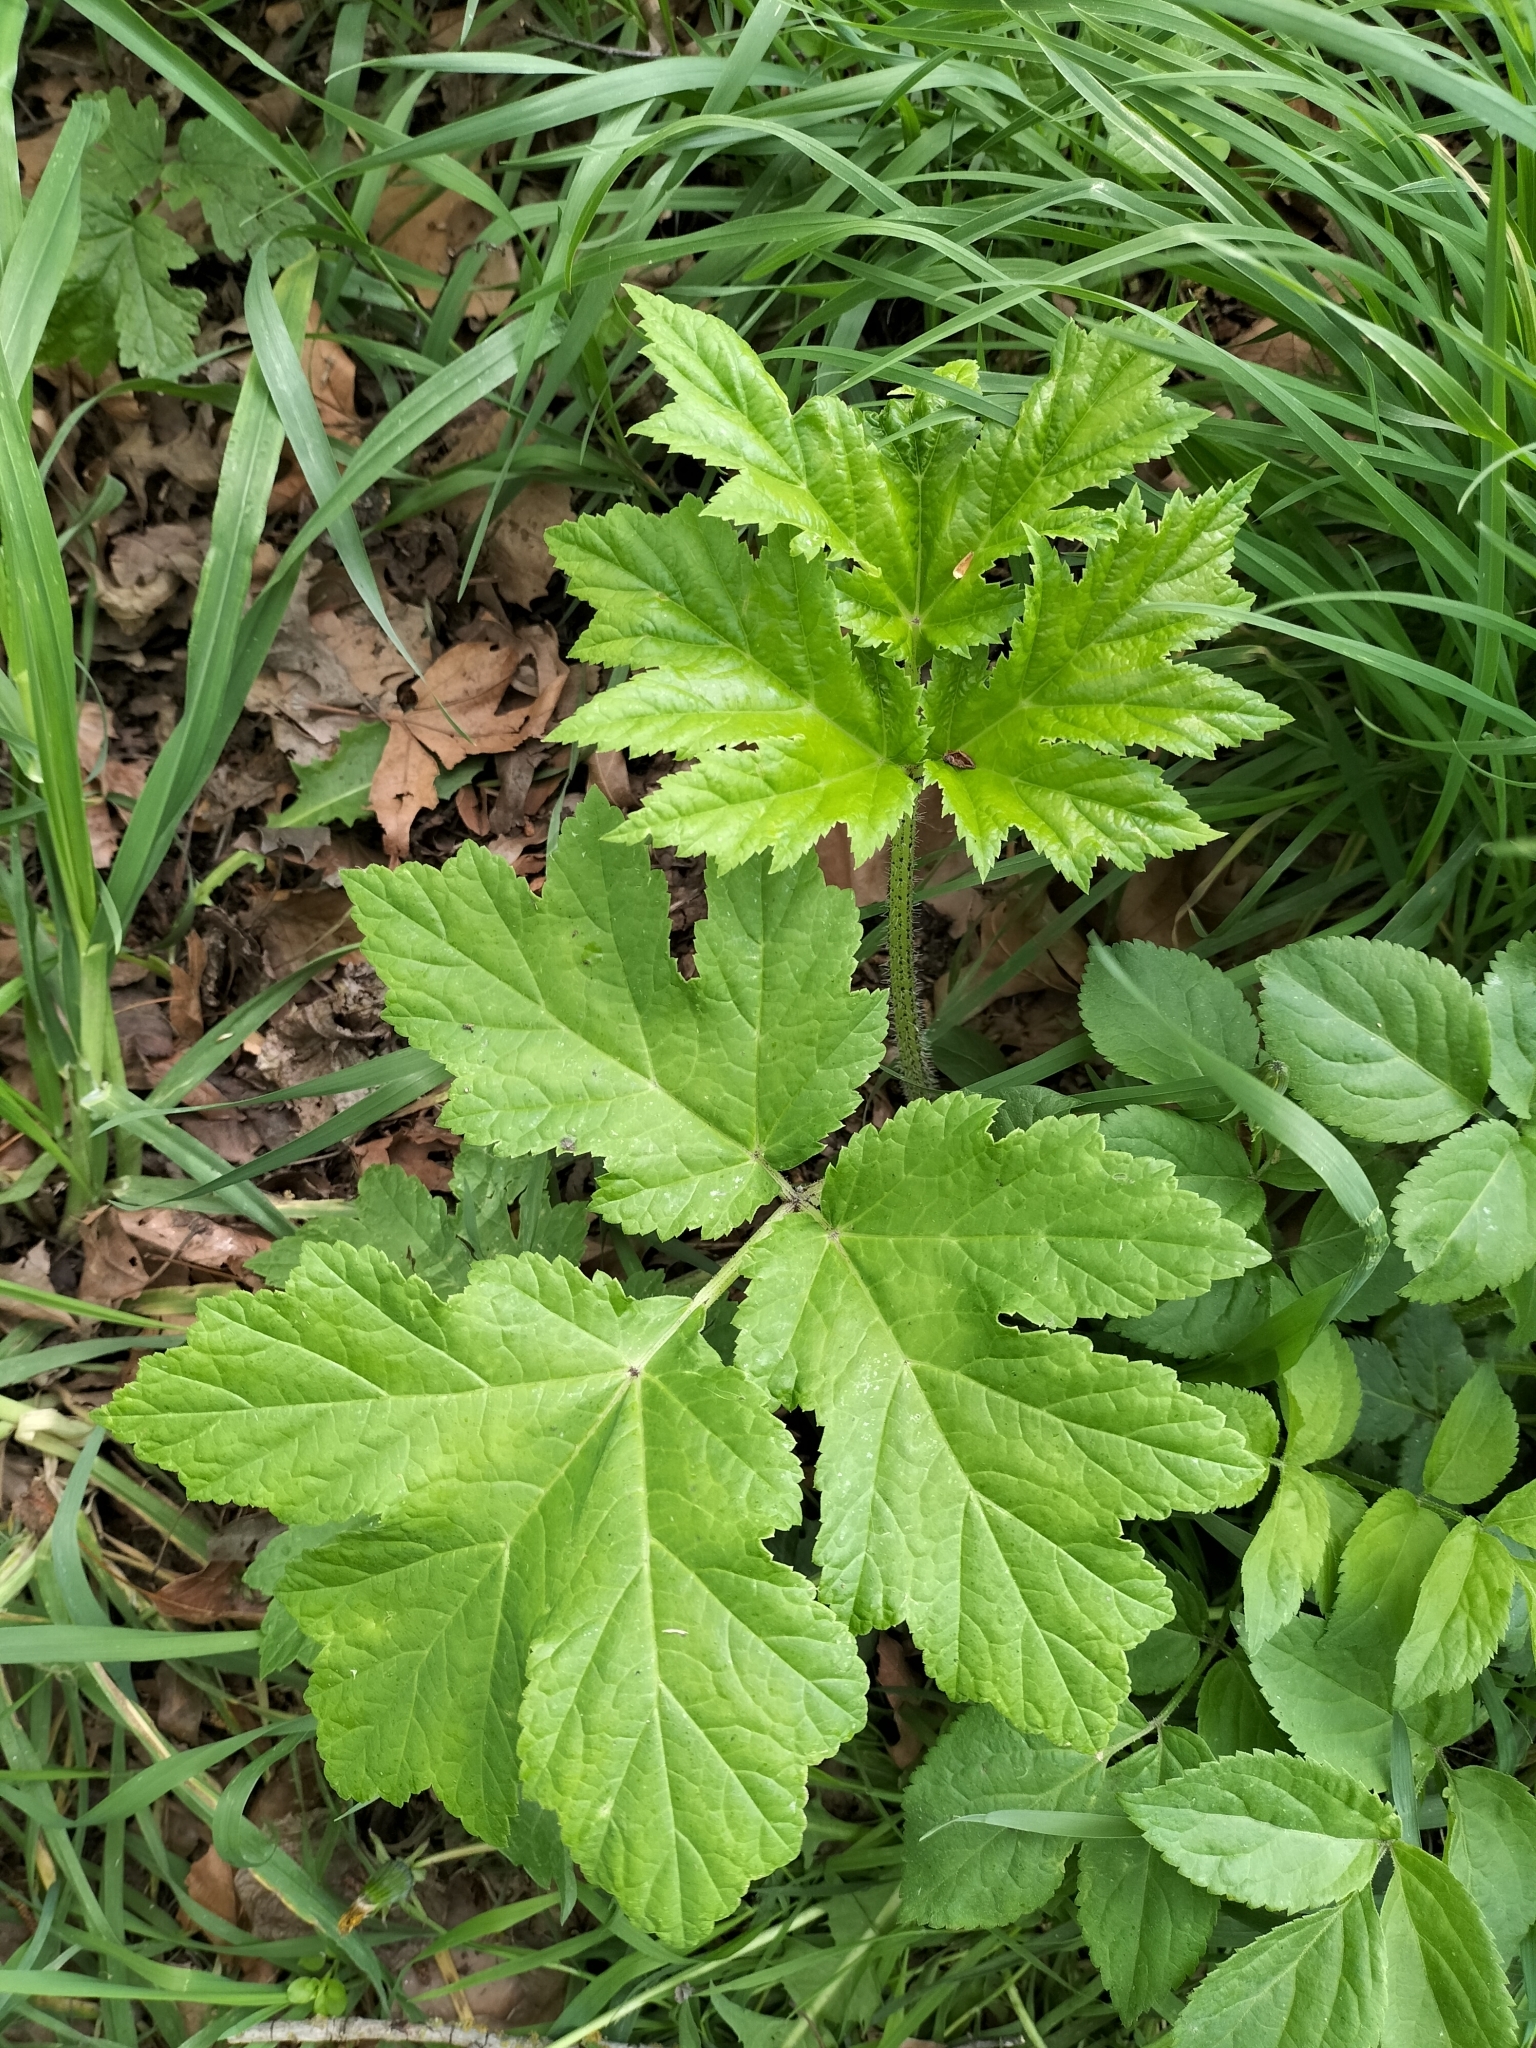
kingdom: Plantae
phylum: Tracheophyta
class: Magnoliopsida
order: Apiales
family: Apiaceae
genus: Heracleum
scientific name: Heracleum mantegazzianum
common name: Giant hogweed
